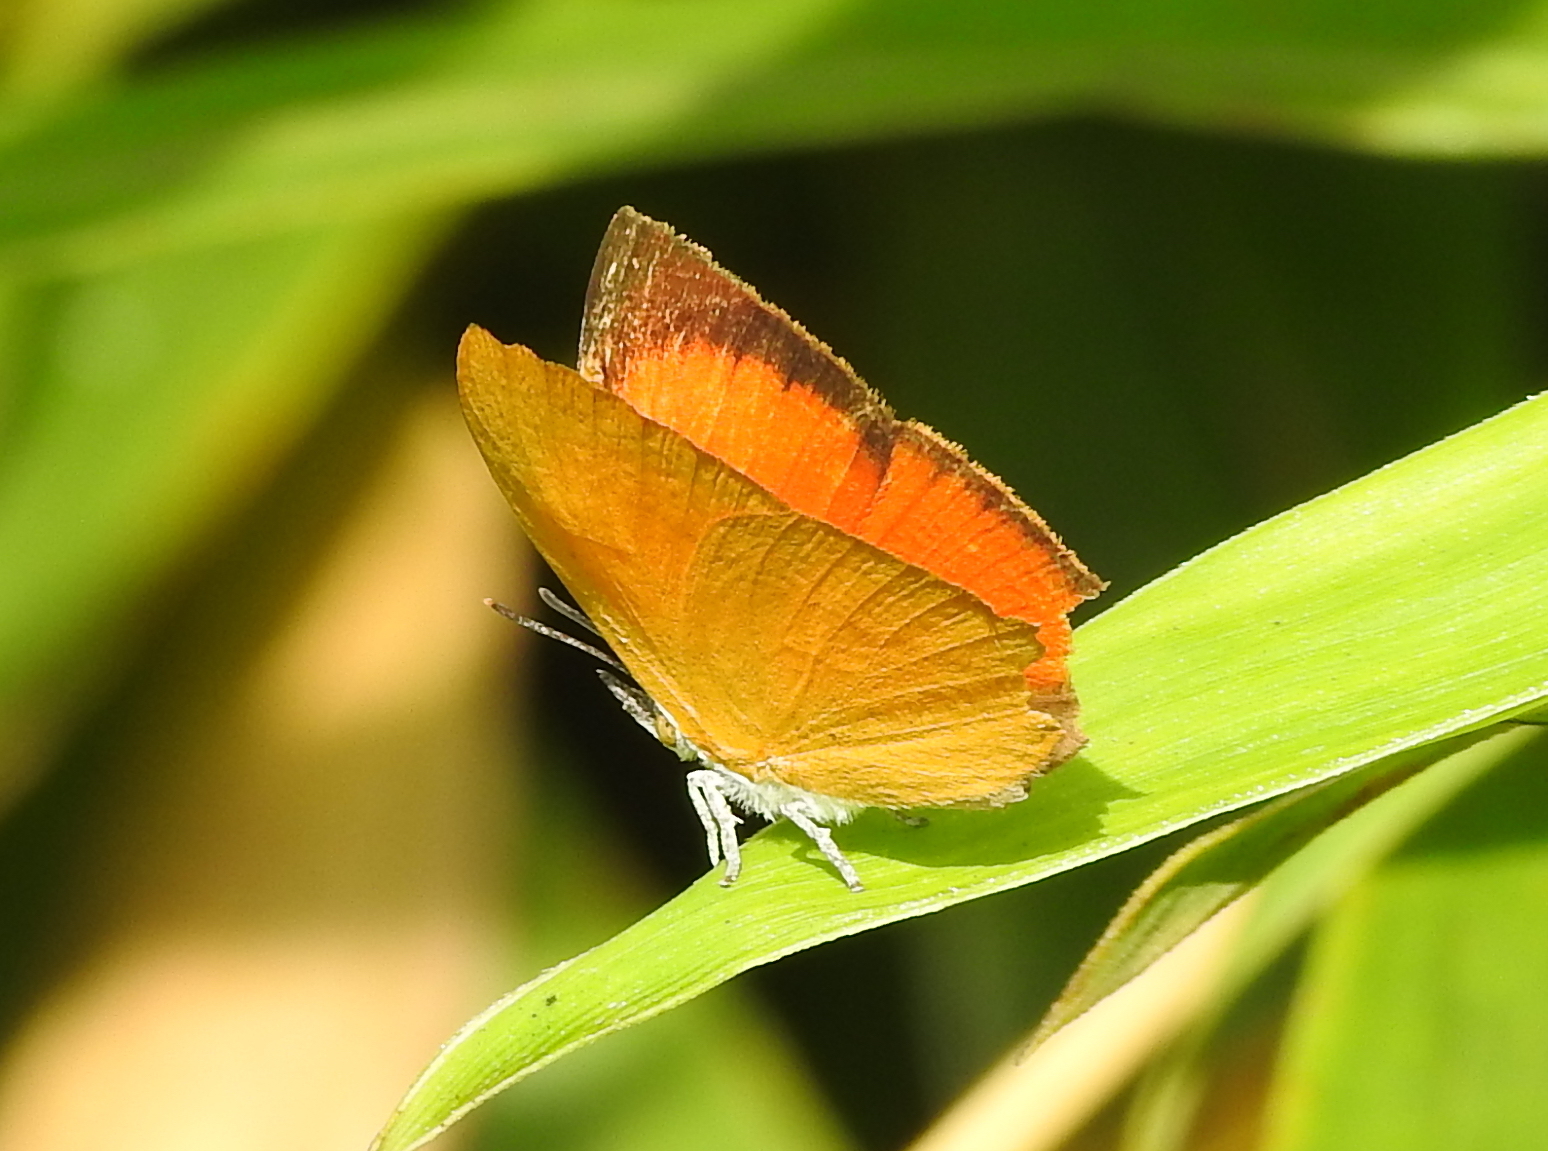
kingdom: Animalia
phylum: Arthropoda
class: Insecta
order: Lepidoptera
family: Lycaenidae
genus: Loxura
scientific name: Loxura atymnus
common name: Common yamfly
